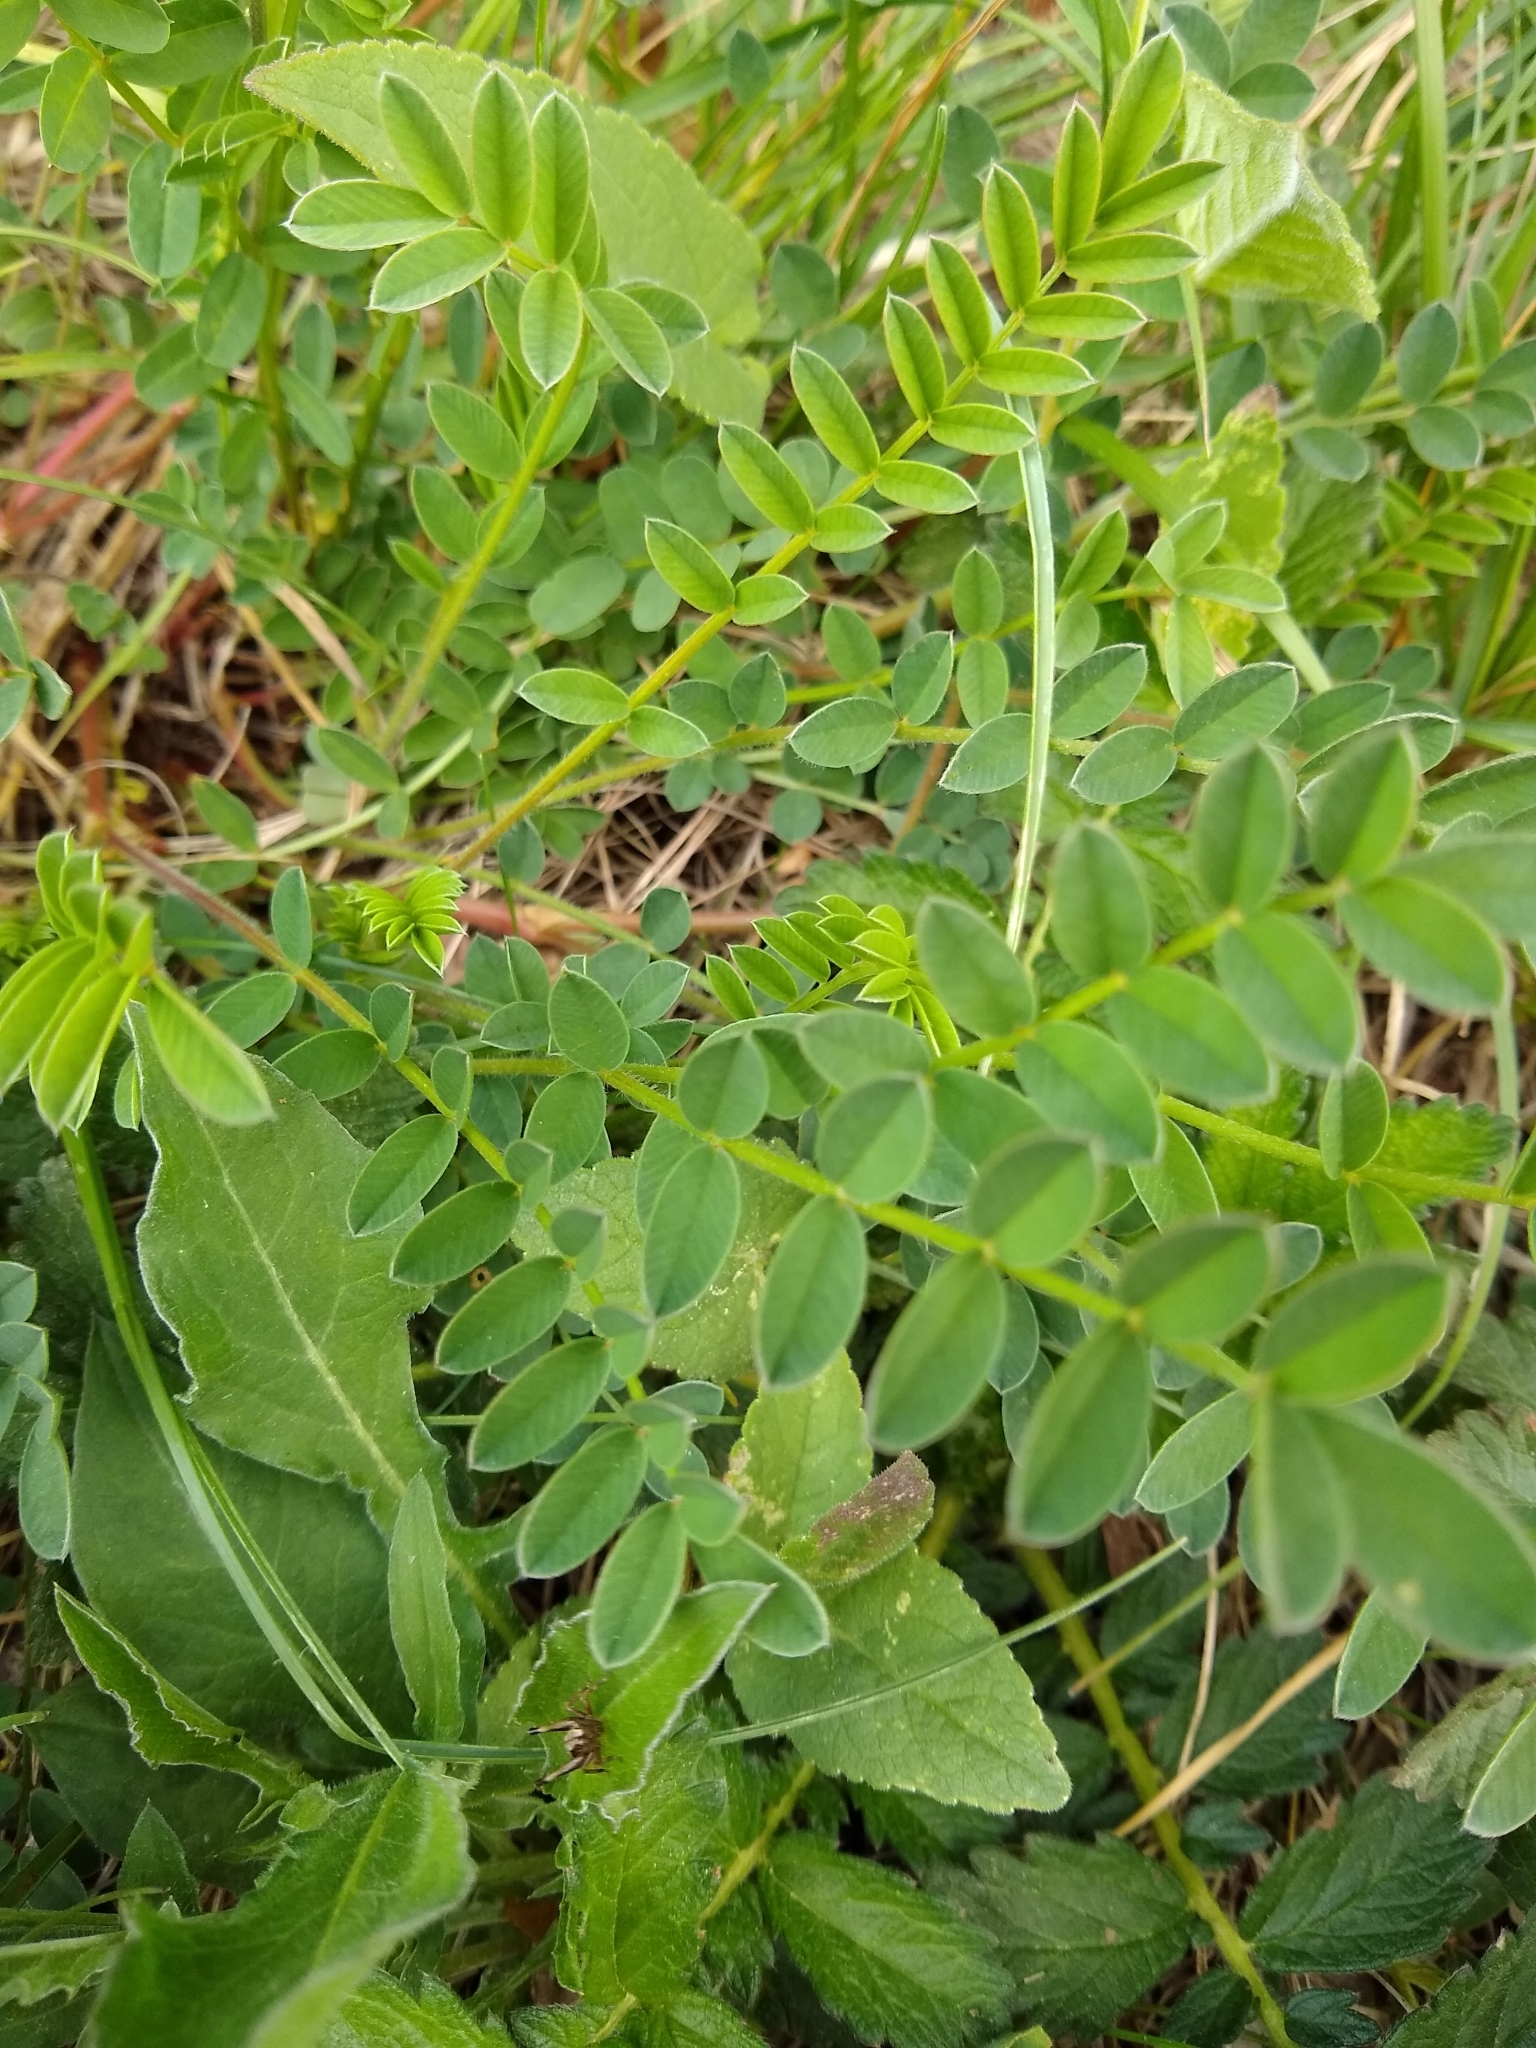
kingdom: Plantae
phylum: Tracheophyta
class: Magnoliopsida
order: Fabales
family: Fabaceae
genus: Onobrychis
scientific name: Onobrychis viciifolia
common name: Sainfoin
